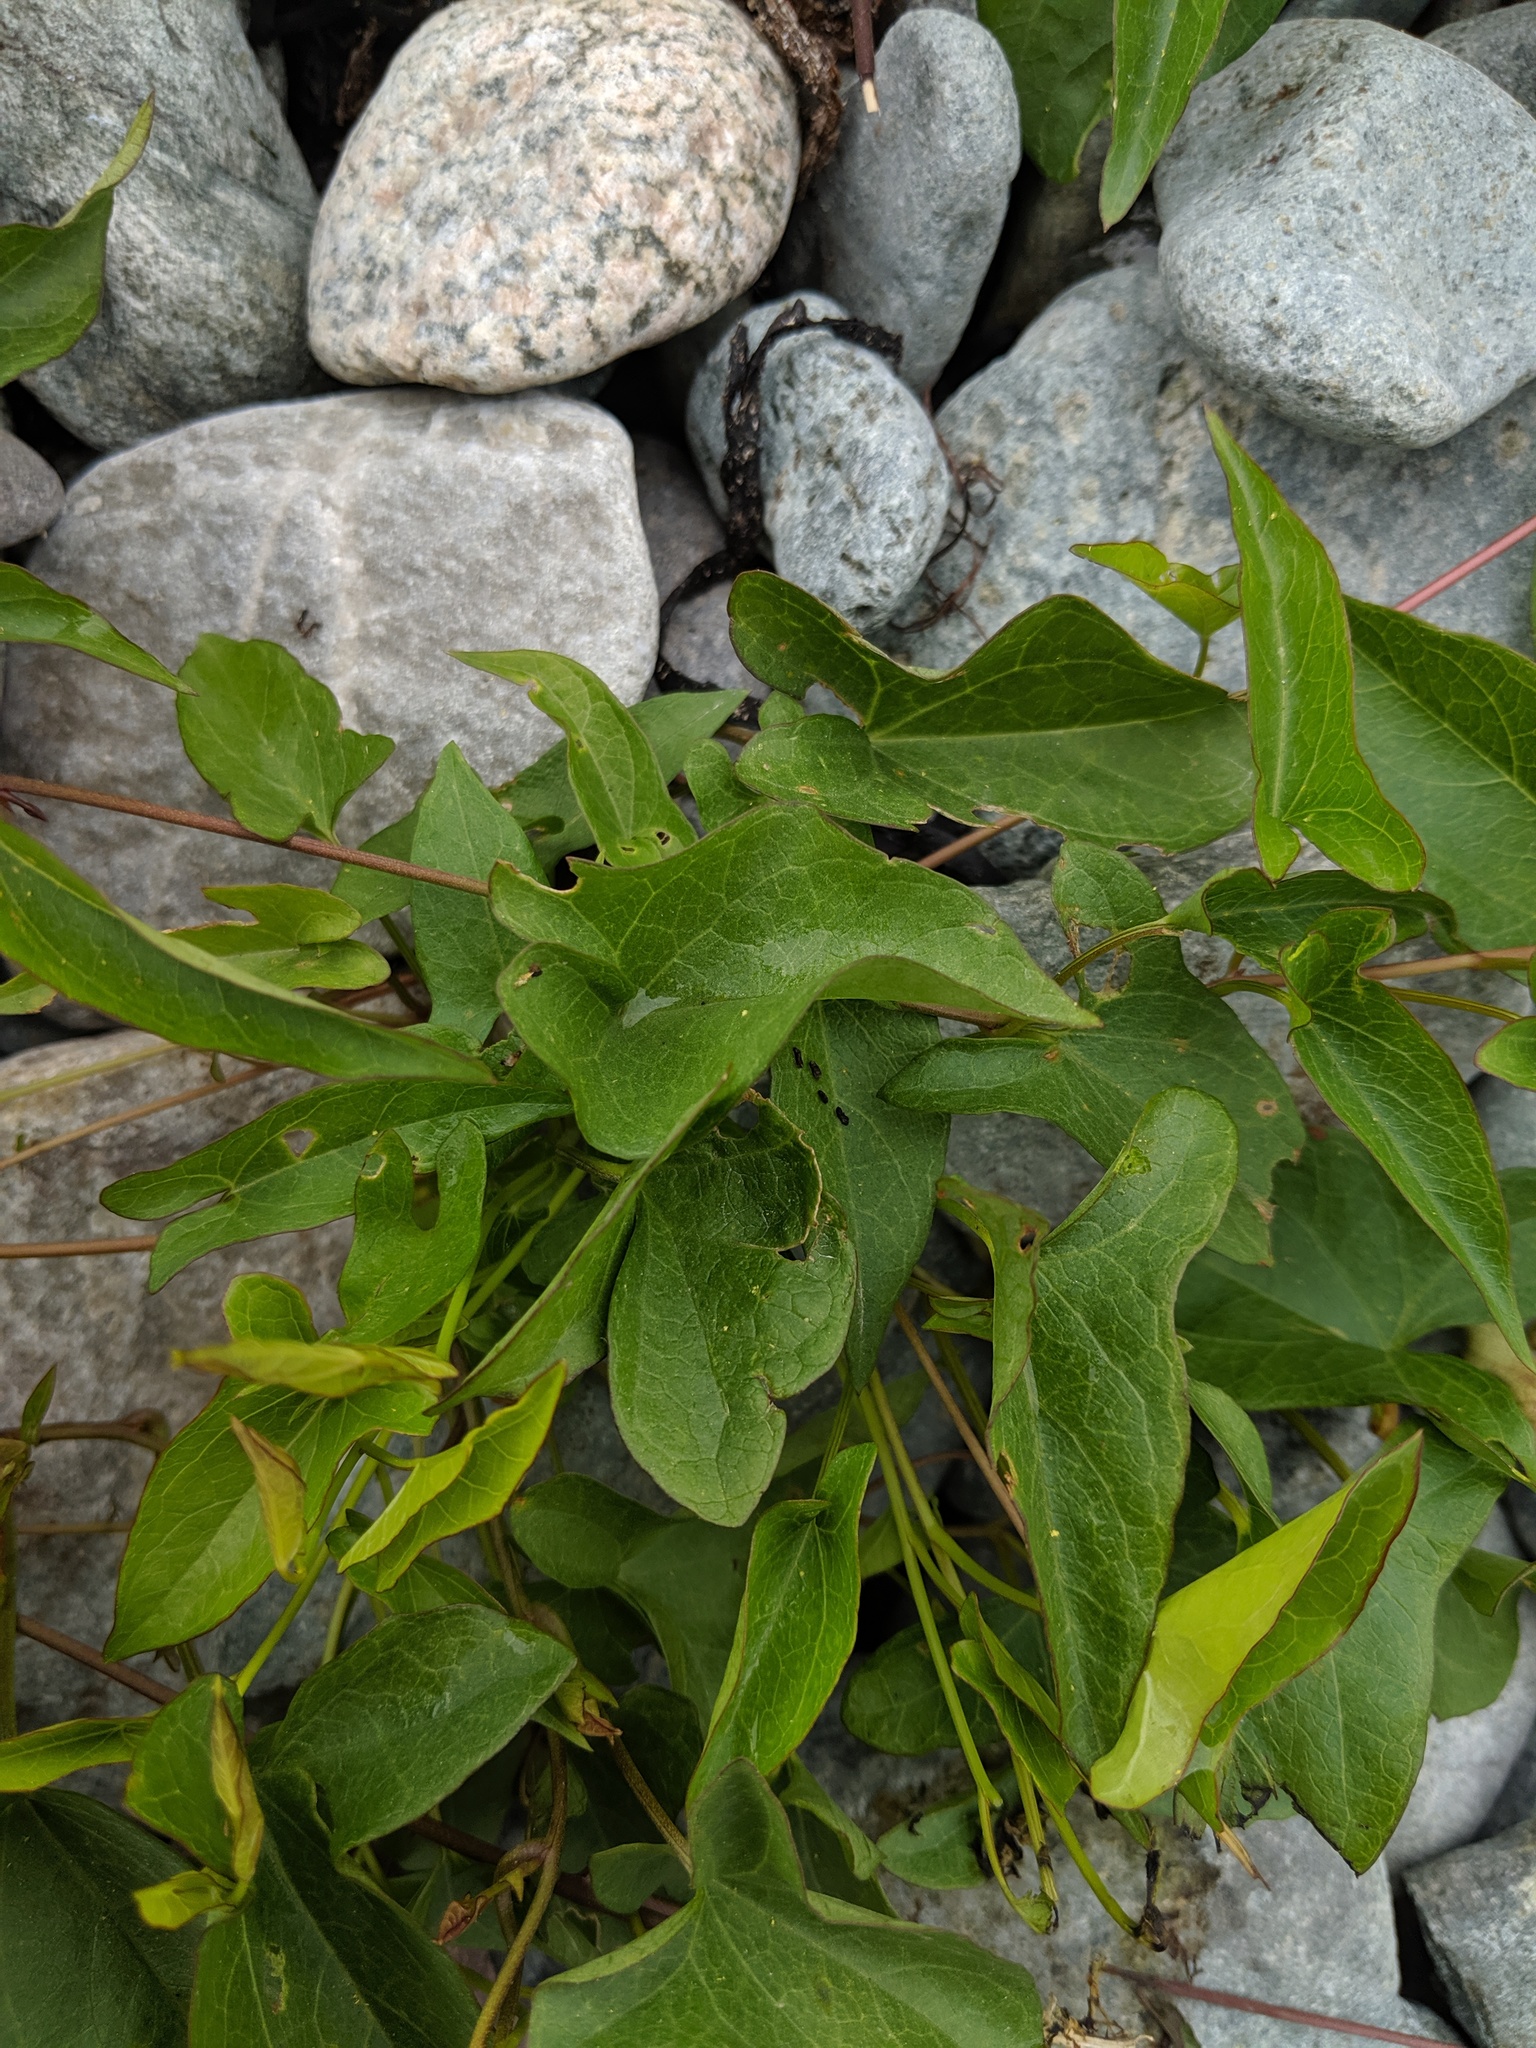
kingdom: Plantae
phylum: Tracheophyta
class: Magnoliopsida
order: Solanales
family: Convolvulaceae
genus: Calystegia
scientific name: Calystegia sepium
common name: Hedge bindweed
